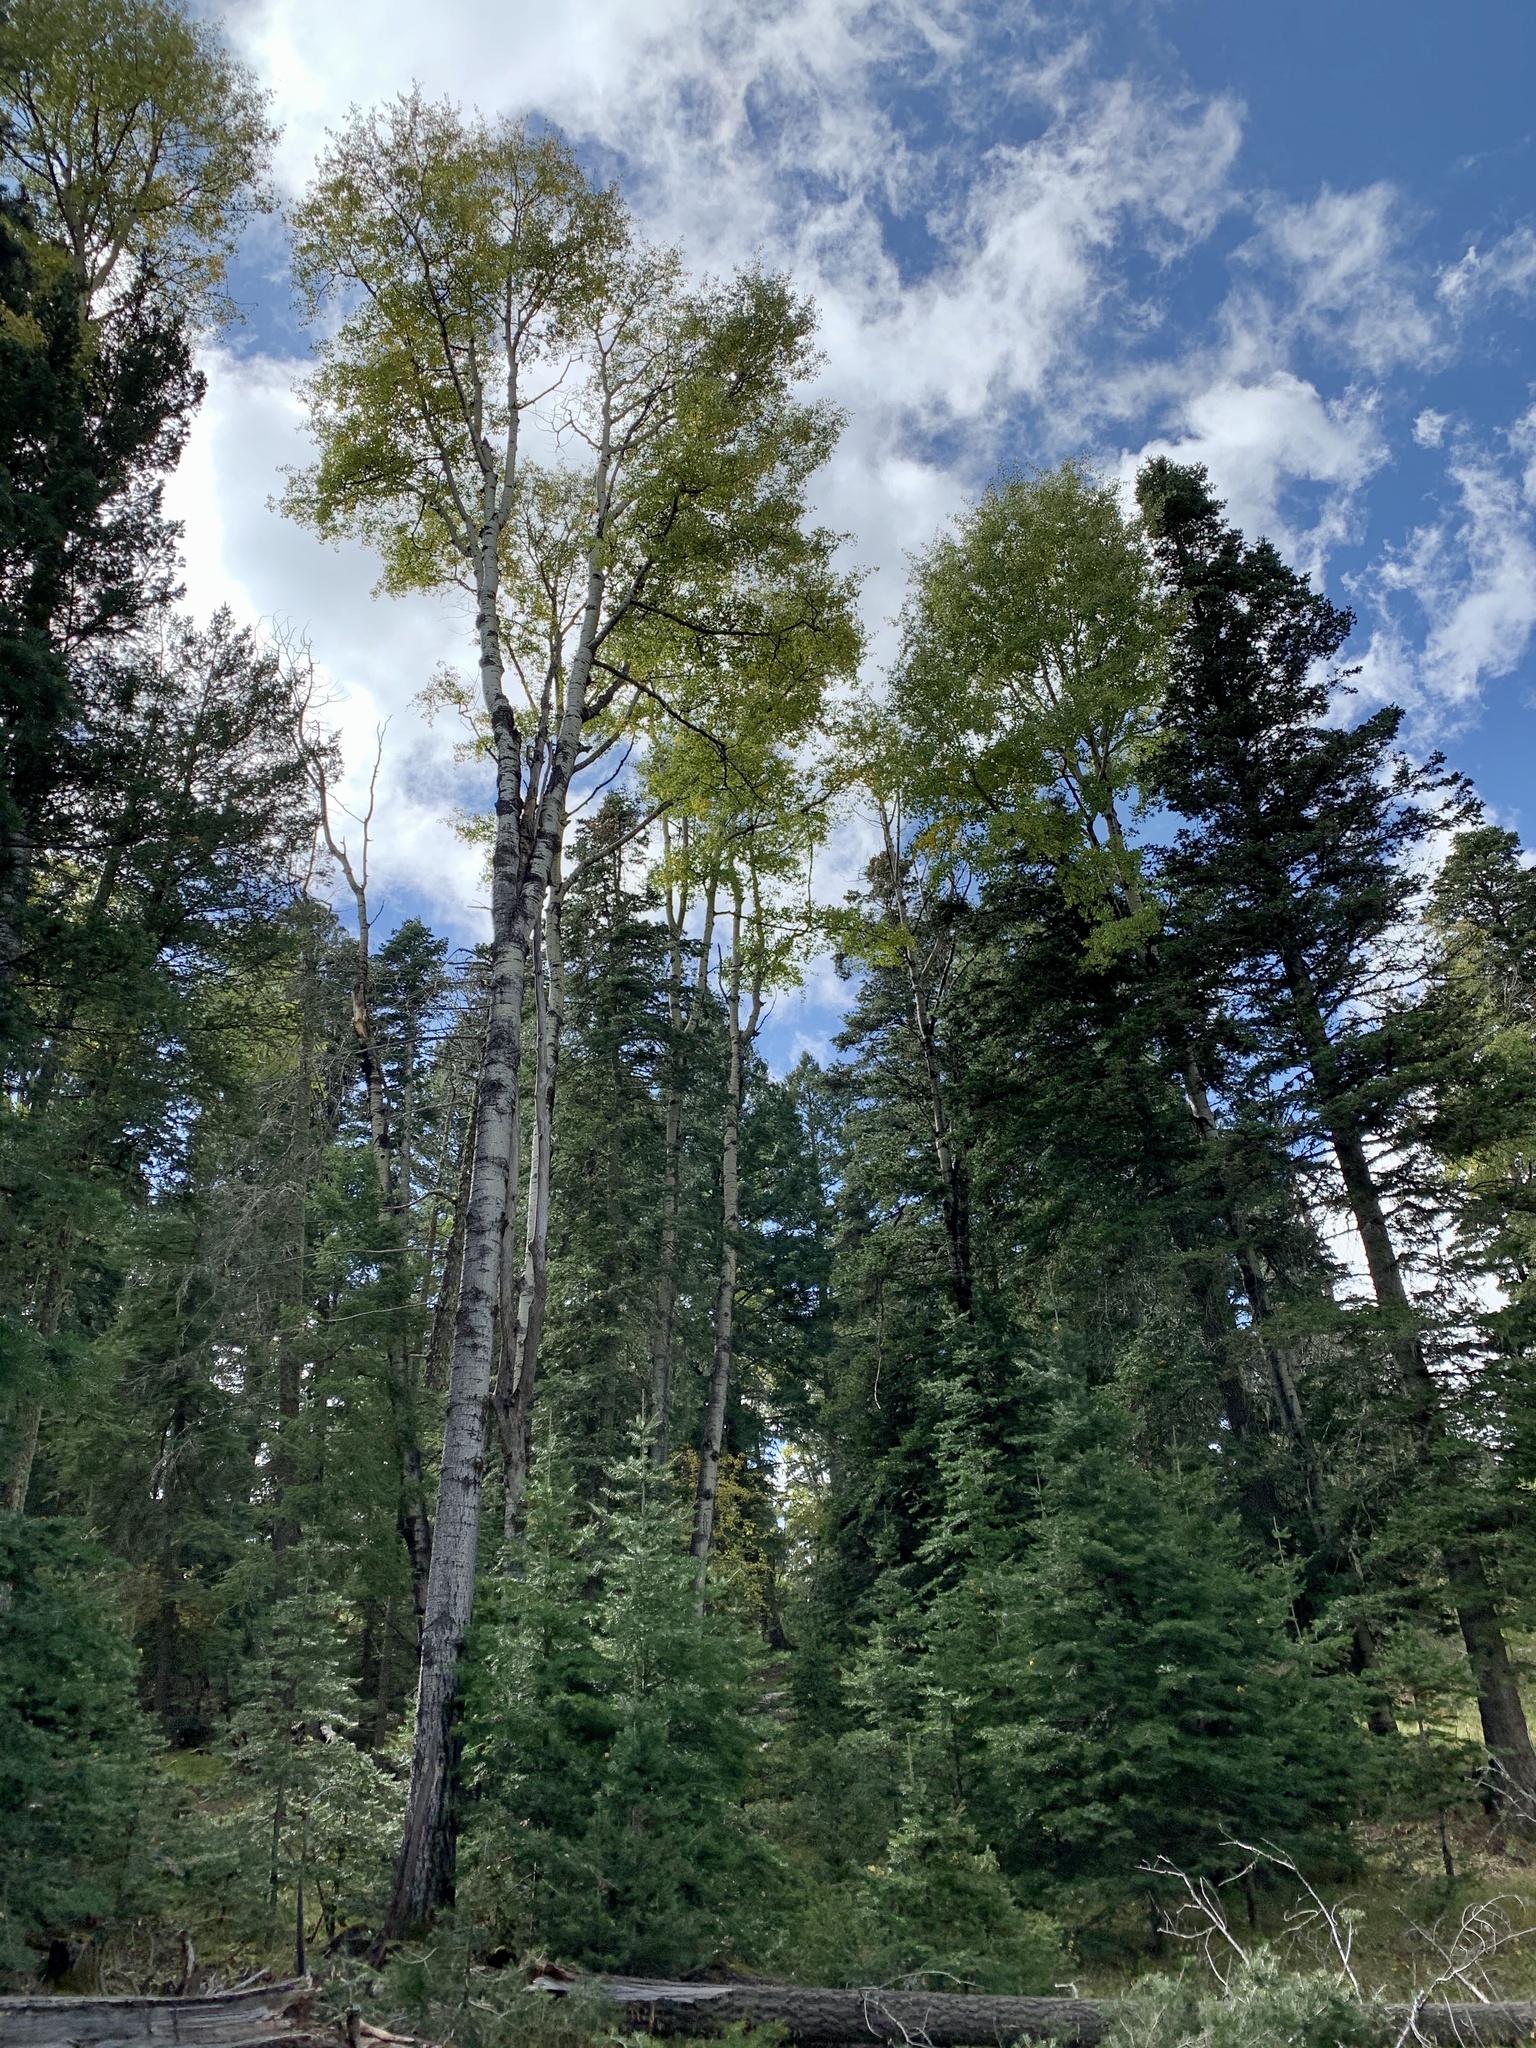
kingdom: Plantae
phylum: Tracheophyta
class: Magnoliopsida
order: Malpighiales
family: Salicaceae
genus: Populus
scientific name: Populus tremuloides
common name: Quaking aspen
